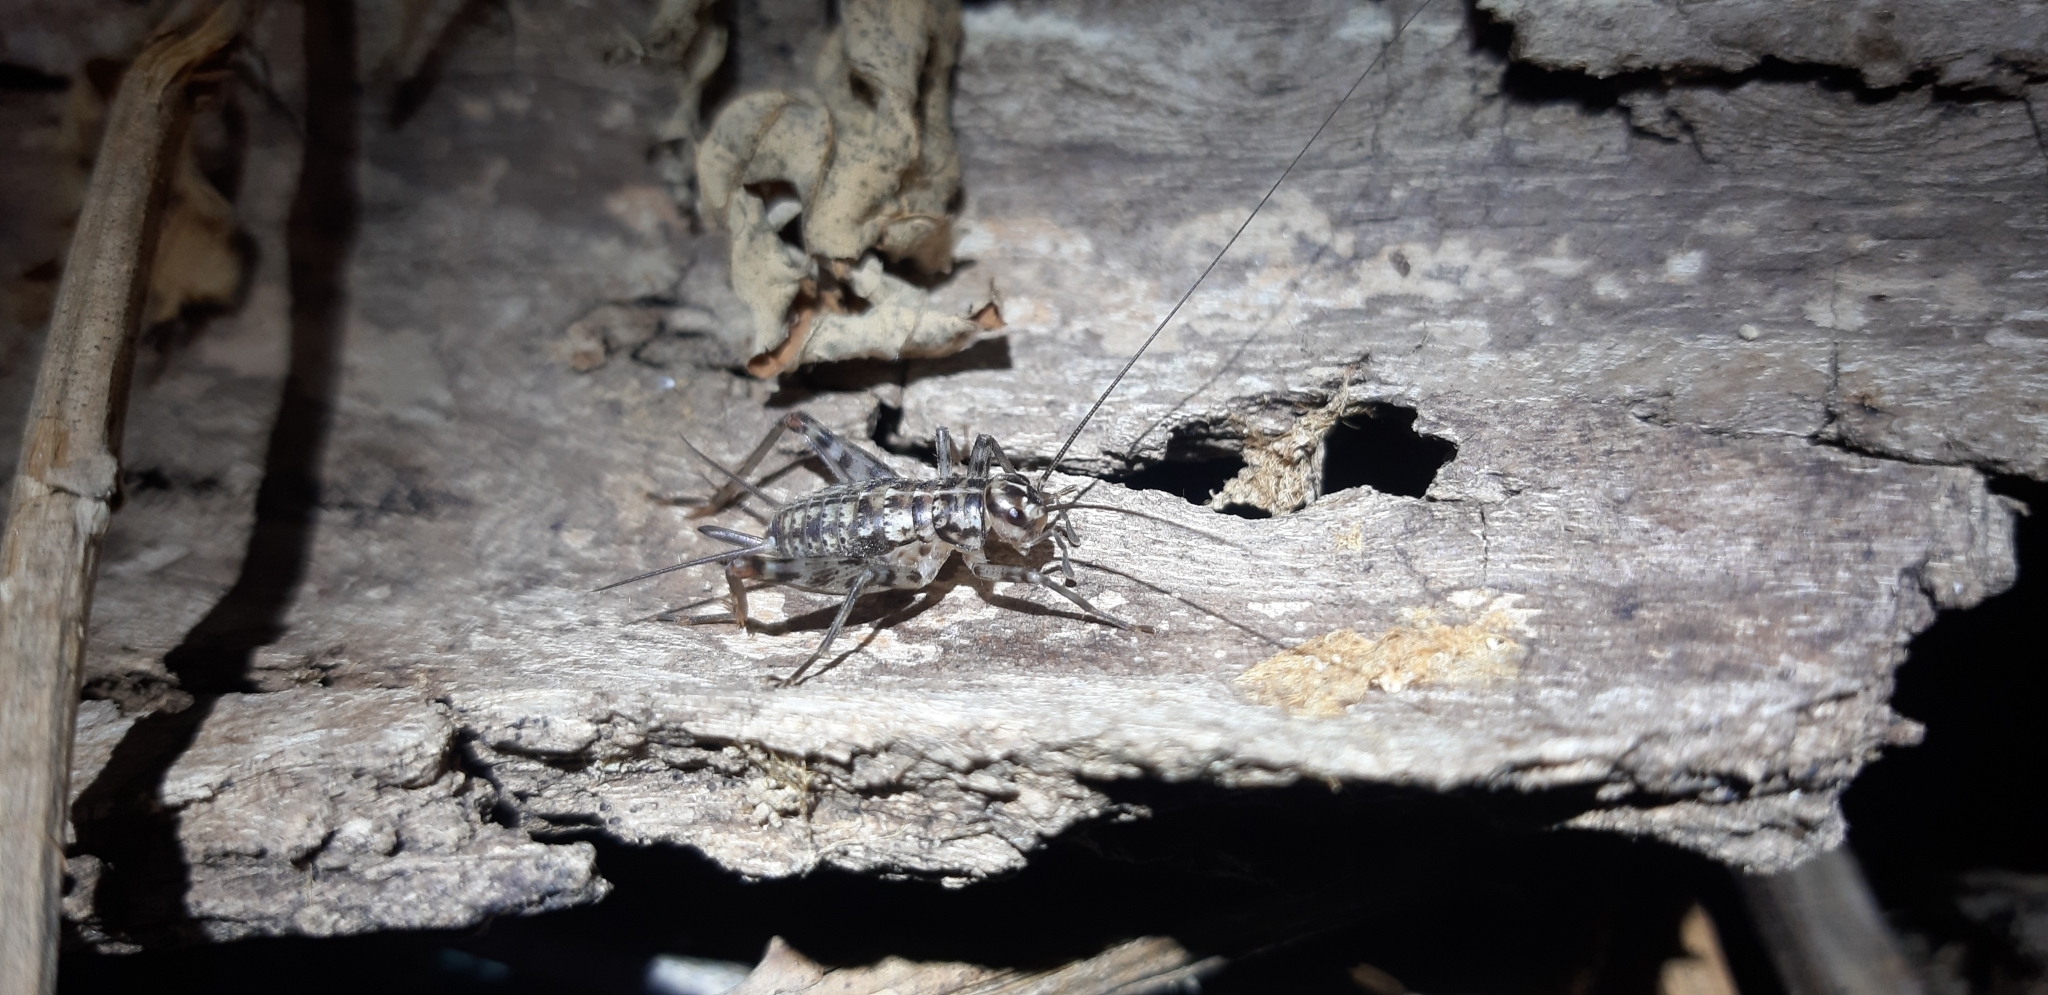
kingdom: Animalia
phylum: Arthropoda
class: Insecta
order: Orthoptera
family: Gryllidae
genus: Gryllomorpha
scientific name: Gryllomorpha dalmatina
